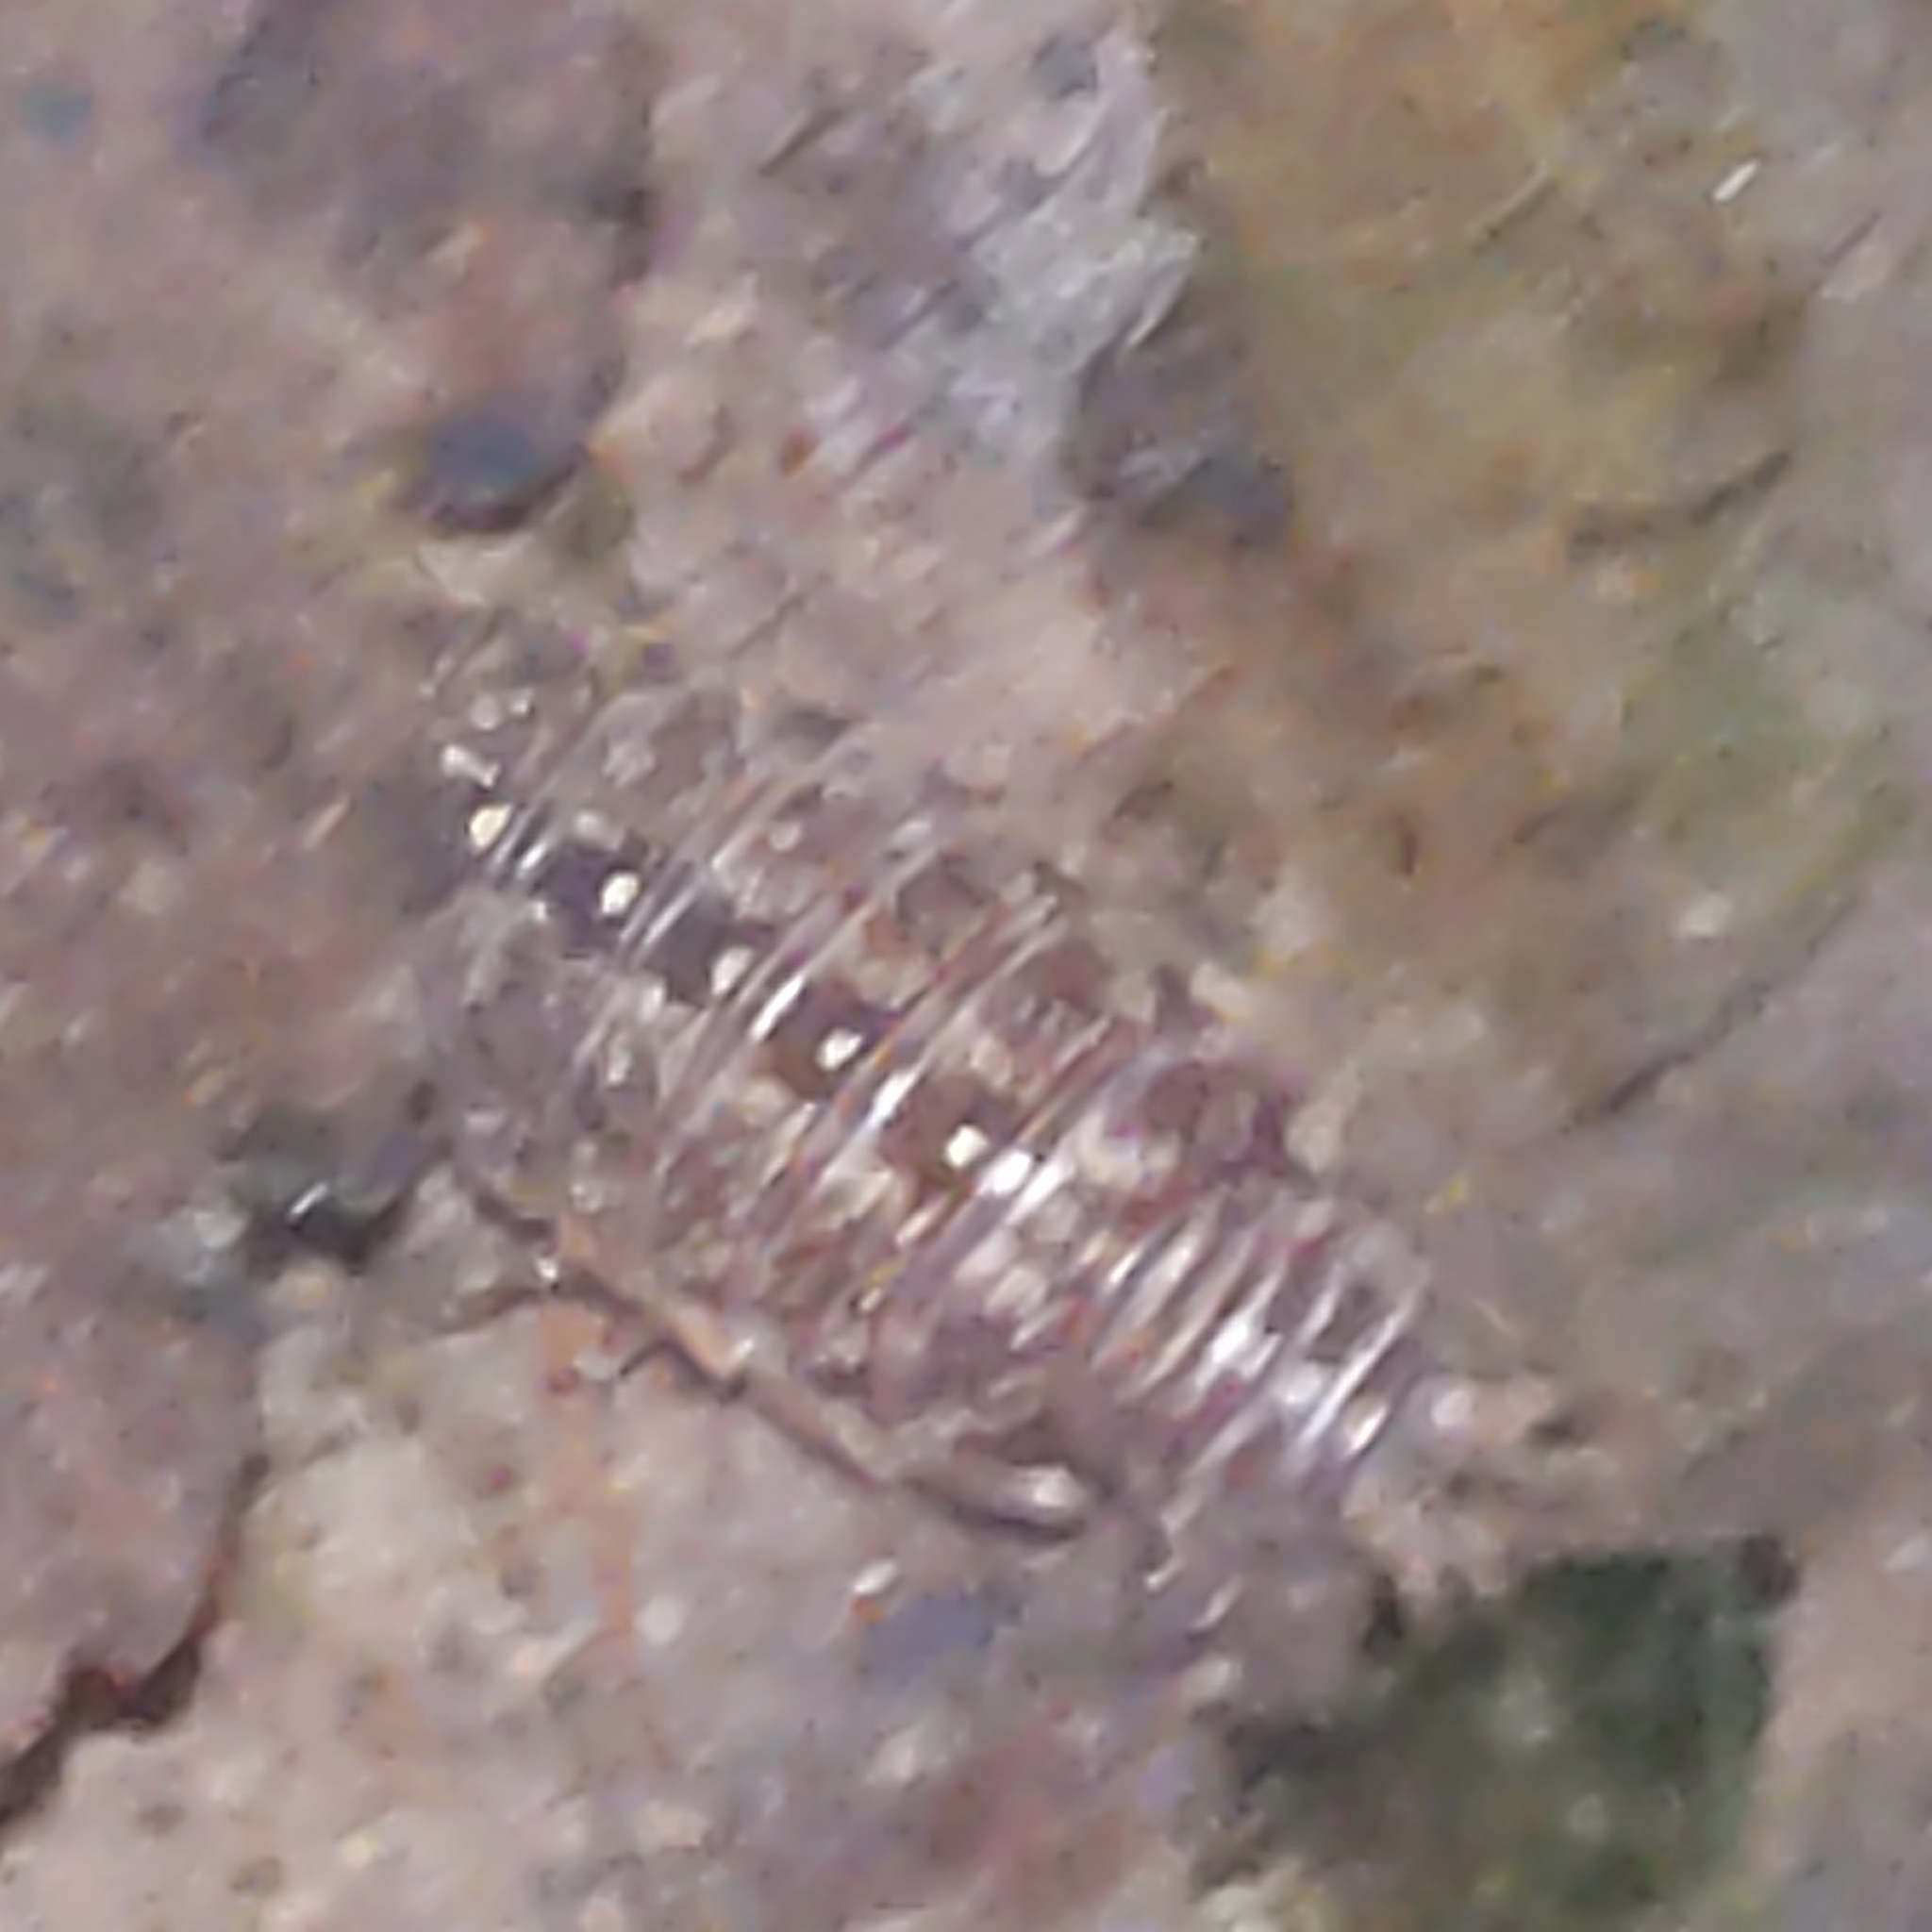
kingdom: Animalia
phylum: Arthropoda
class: Malacostraca
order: Isopoda
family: Philosciidae
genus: Philoscia
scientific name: Philoscia muscorum
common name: Common striped woodlouse
